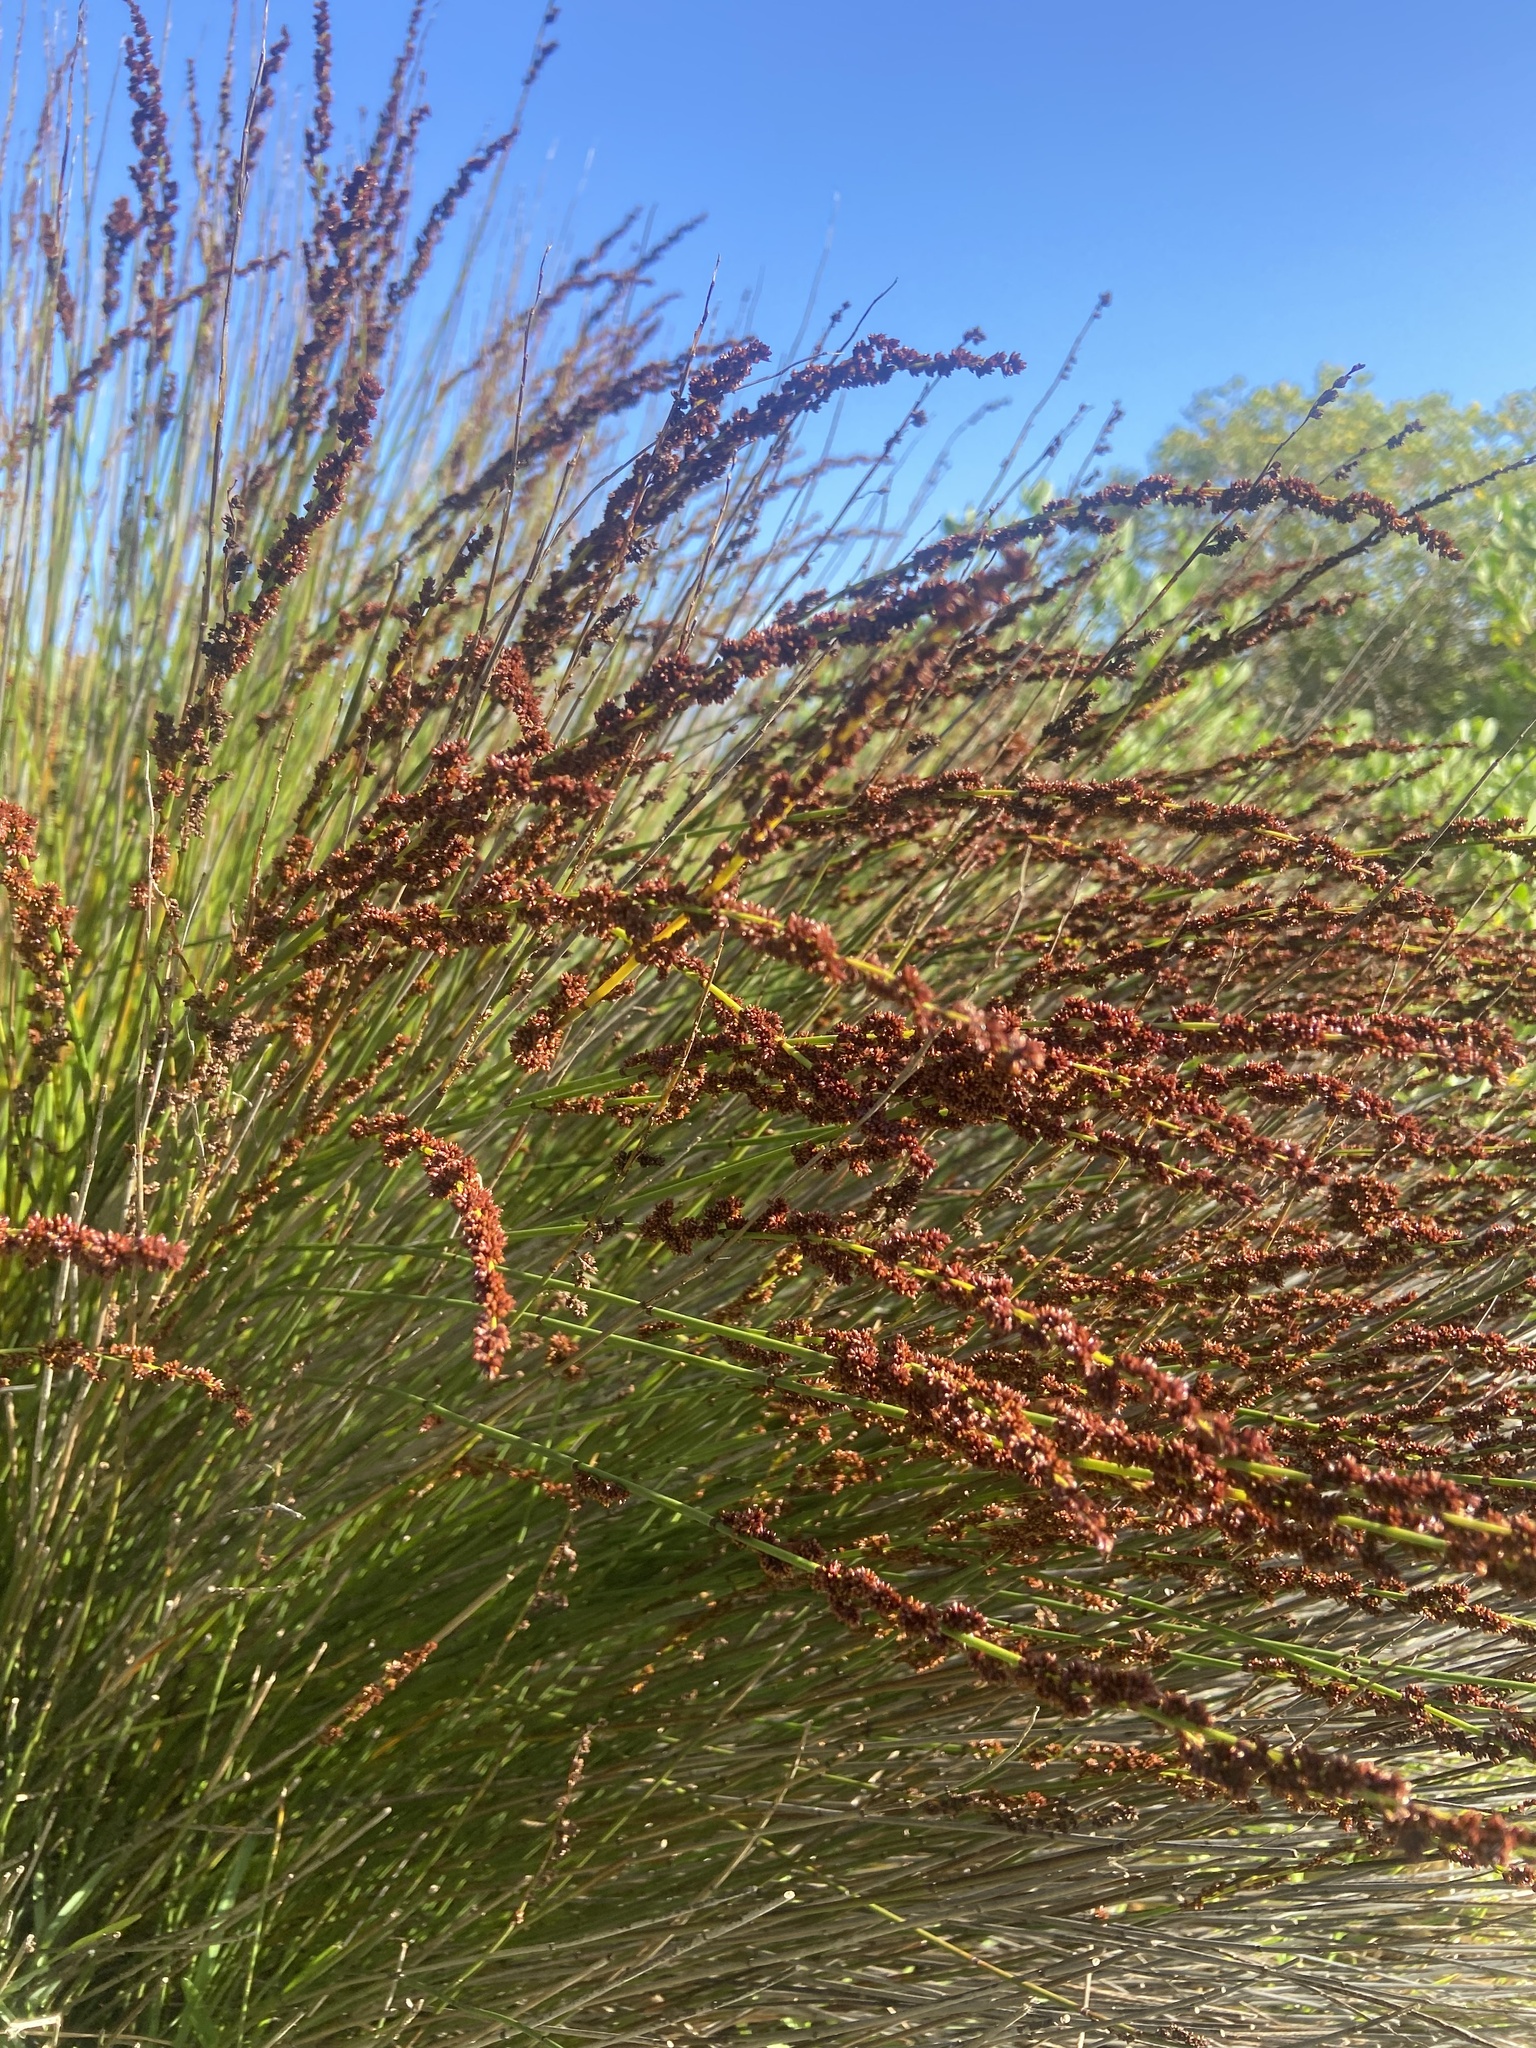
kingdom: Plantae
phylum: Tracheophyta
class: Liliopsida
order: Poales
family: Restionaceae
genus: Elegia
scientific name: Elegia tectorum
